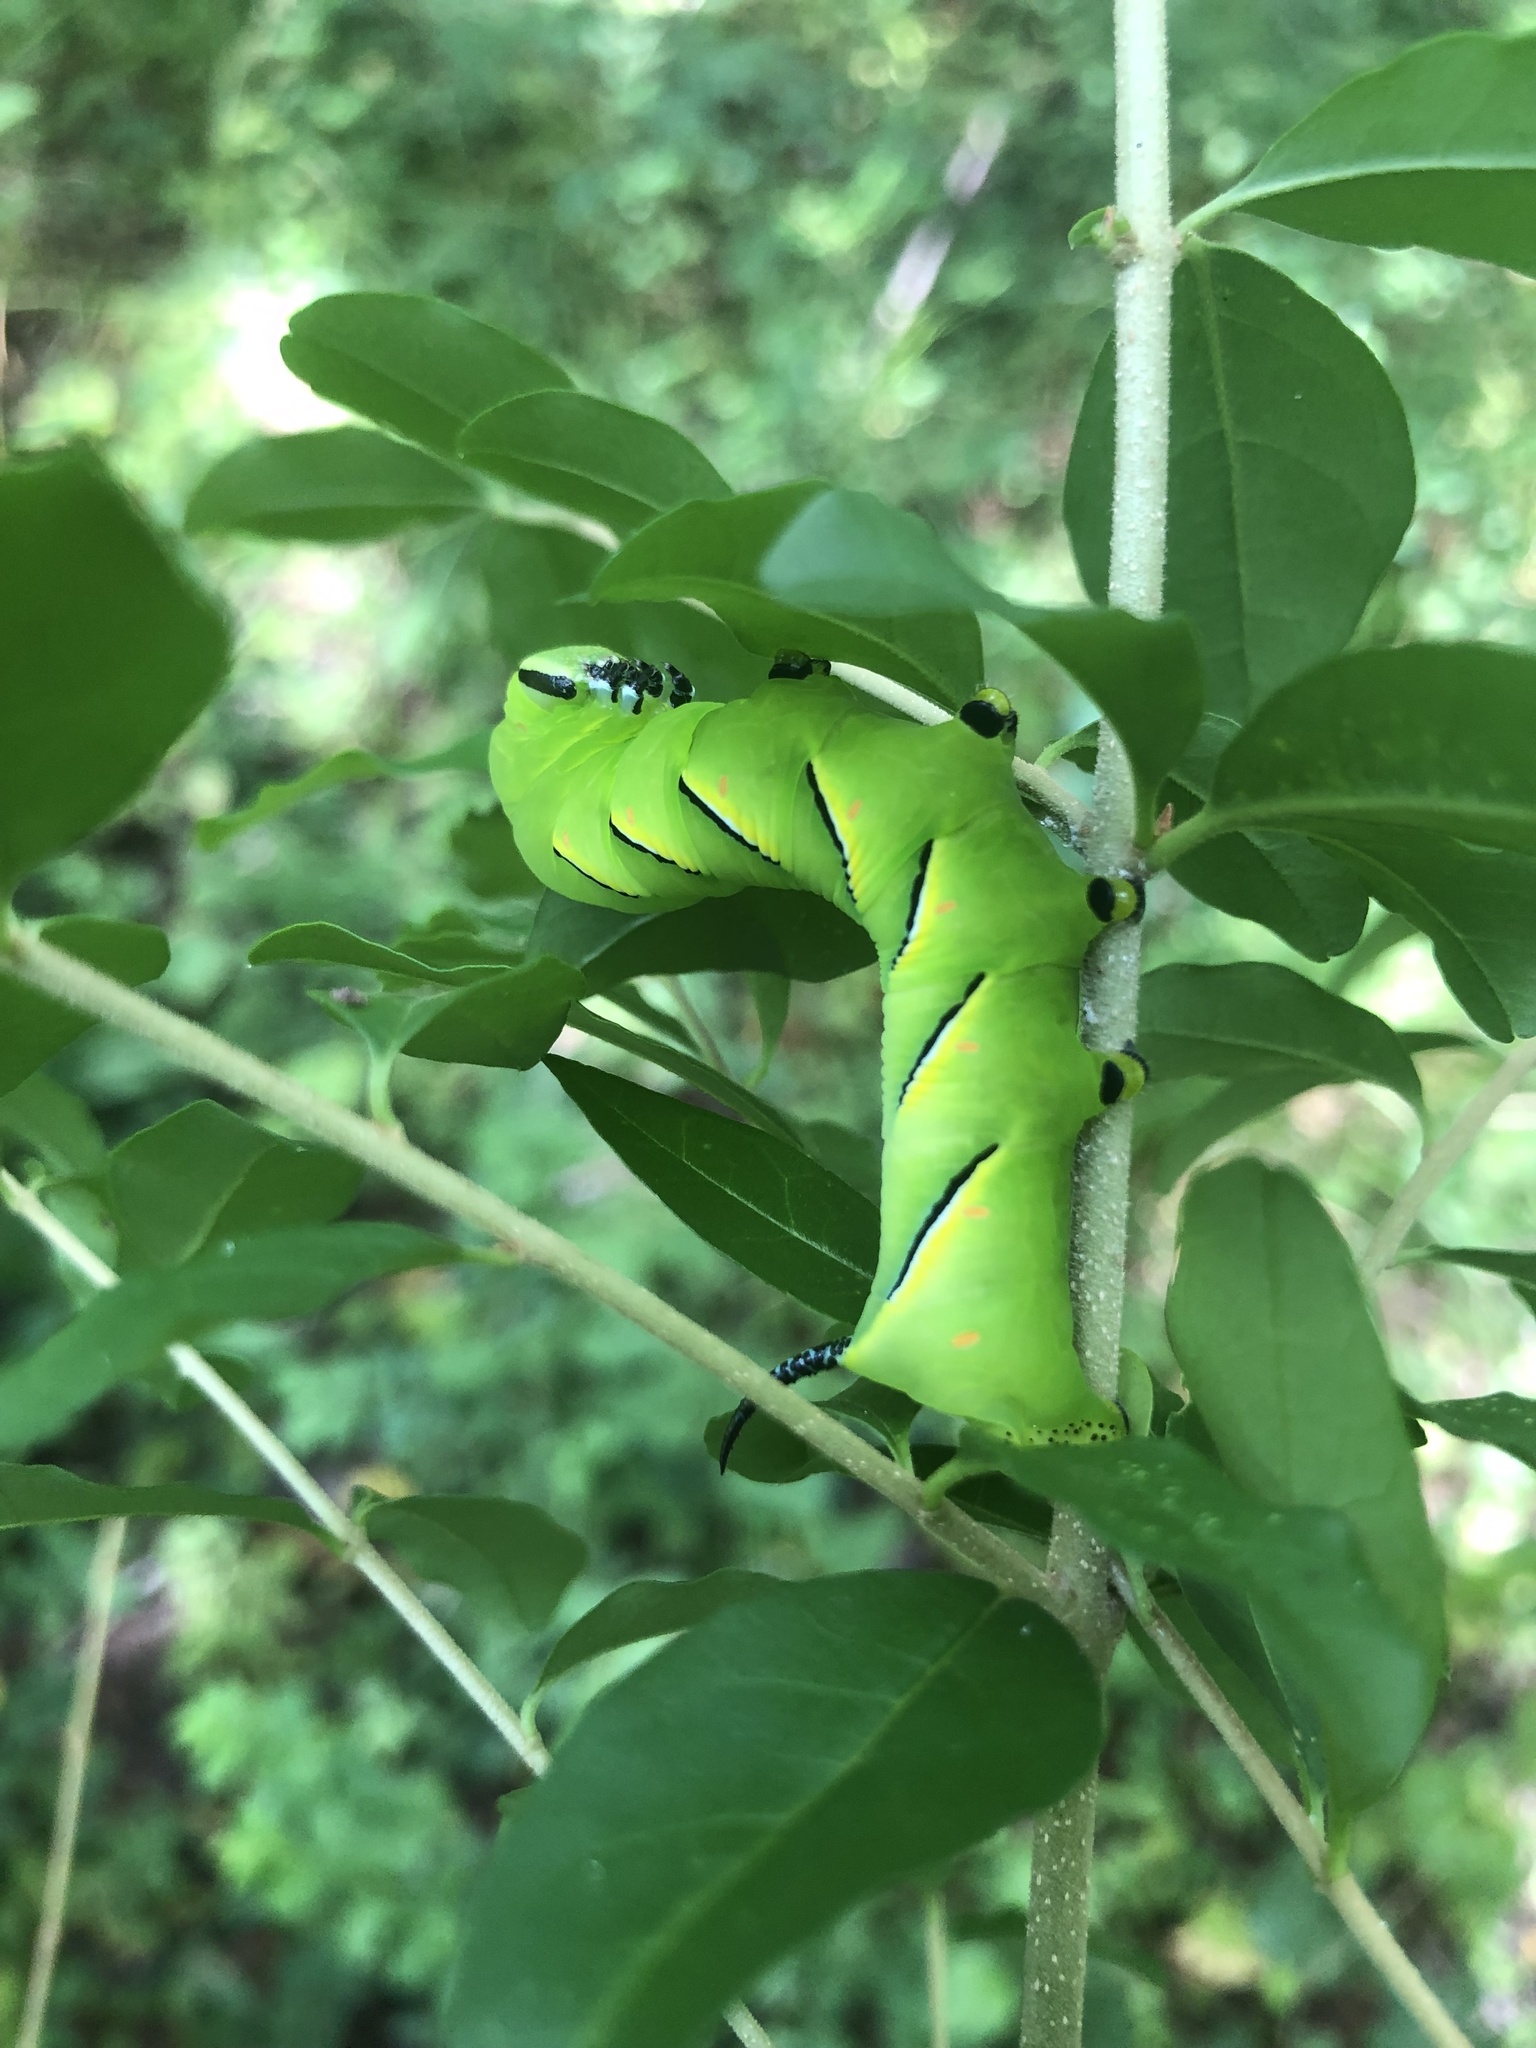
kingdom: Animalia
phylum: Arthropoda
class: Insecta
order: Lepidoptera
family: Sphingidae
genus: Sphinx
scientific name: Sphinx kalmiae
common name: Laurel sphinx
